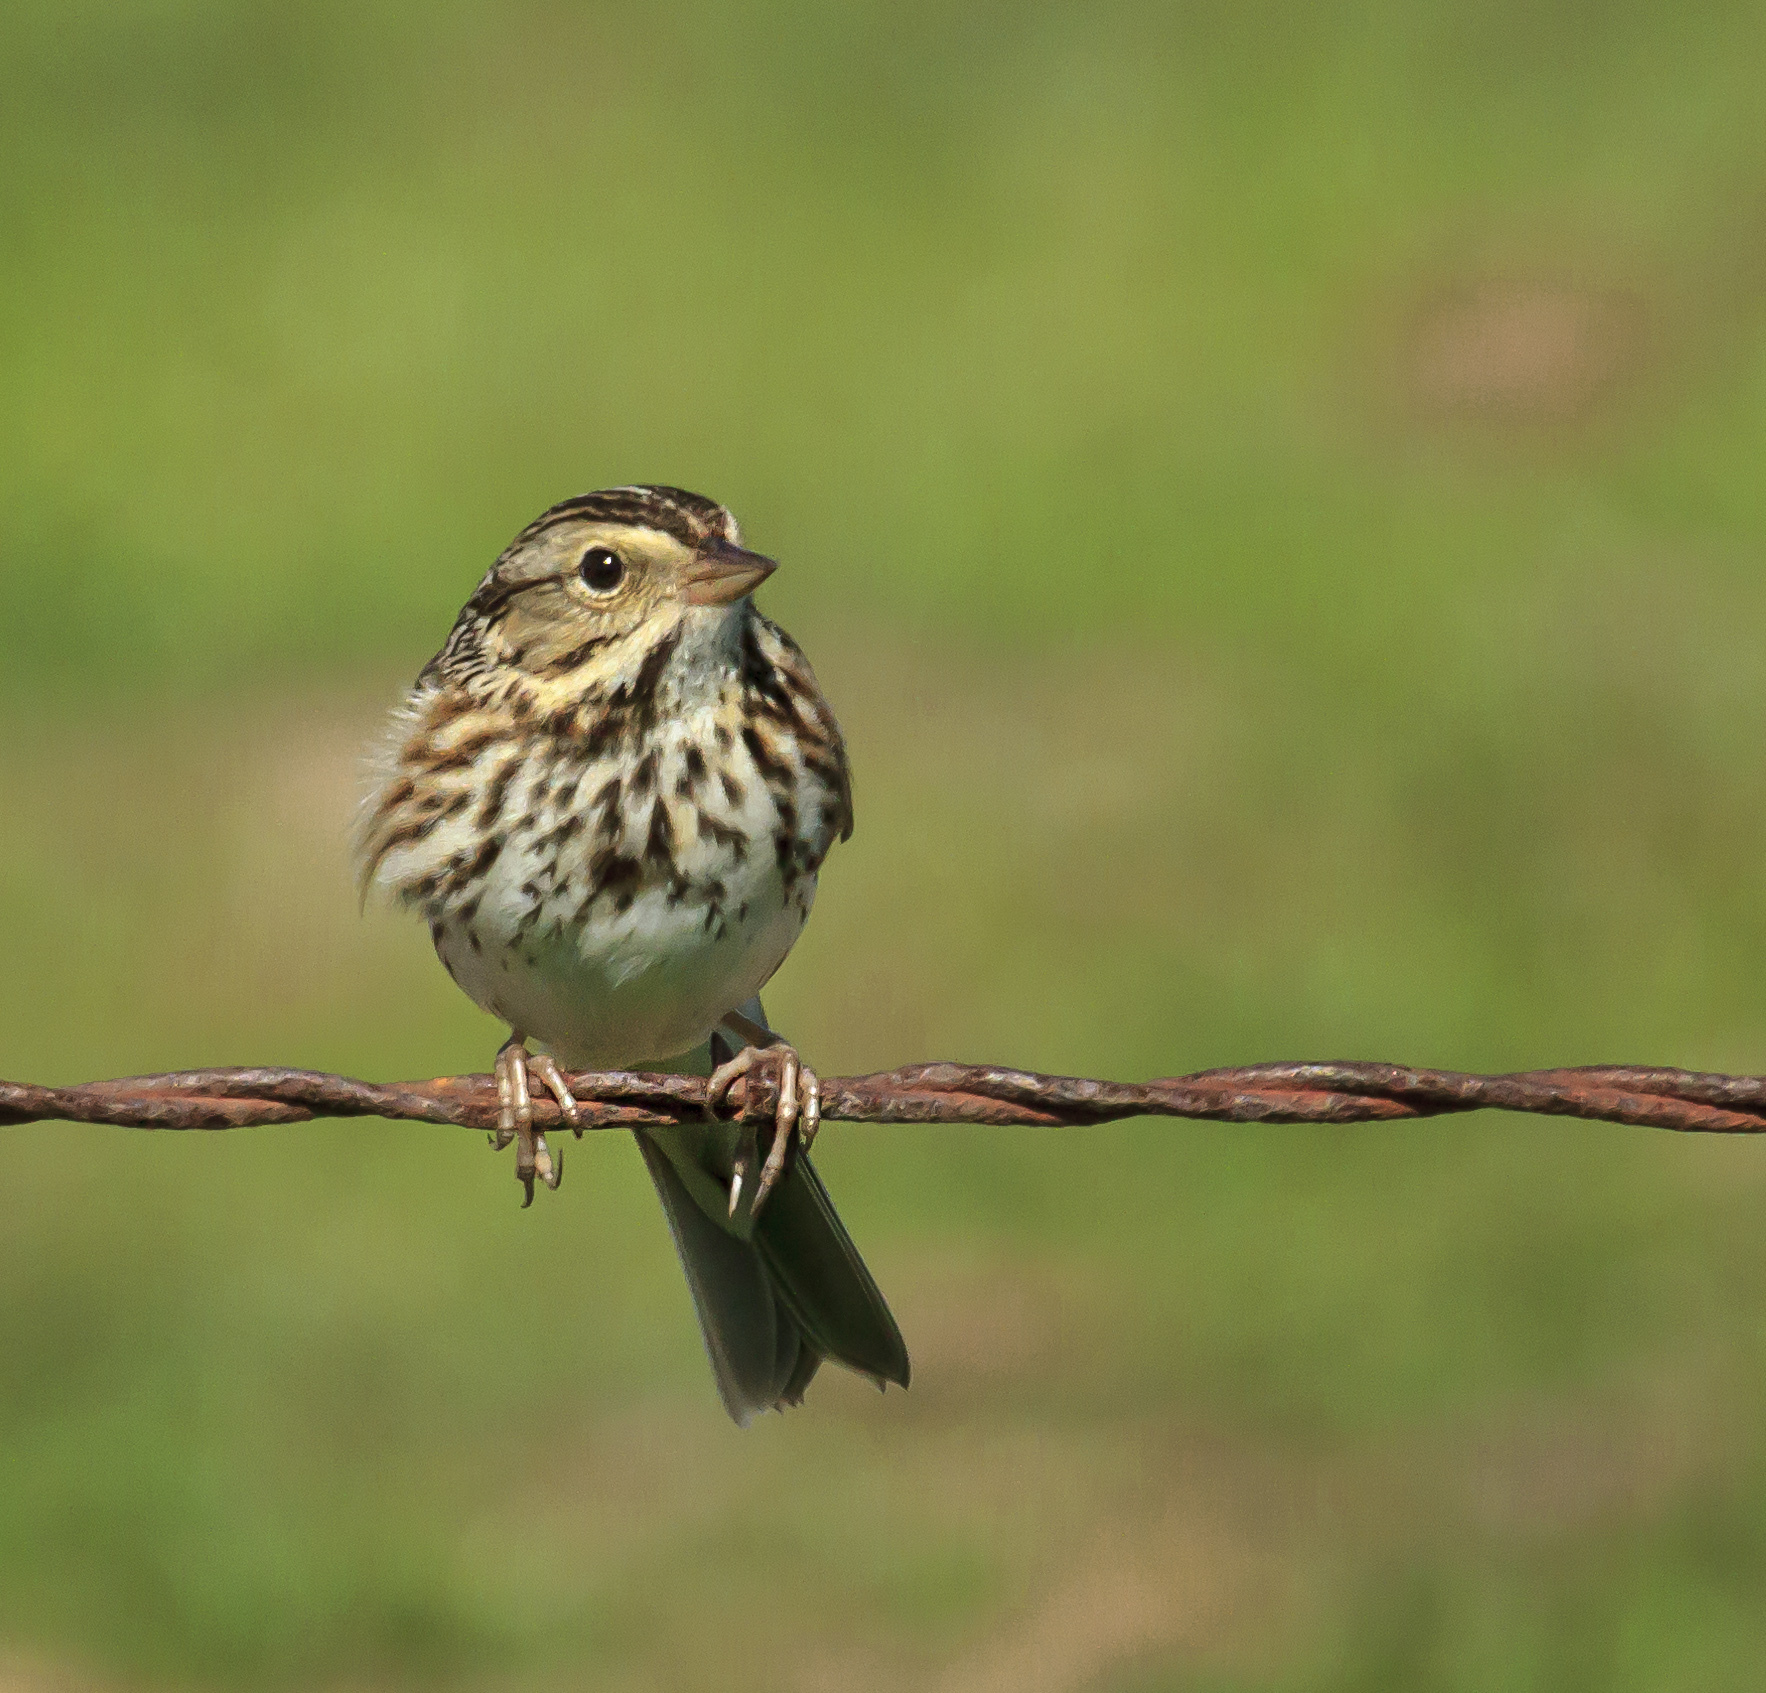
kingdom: Animalia
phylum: Chordata
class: Aves
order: Passeriformes
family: Passerellidae
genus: Passerculus
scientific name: Passerculus sandwichensis
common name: Savannah sparrow
